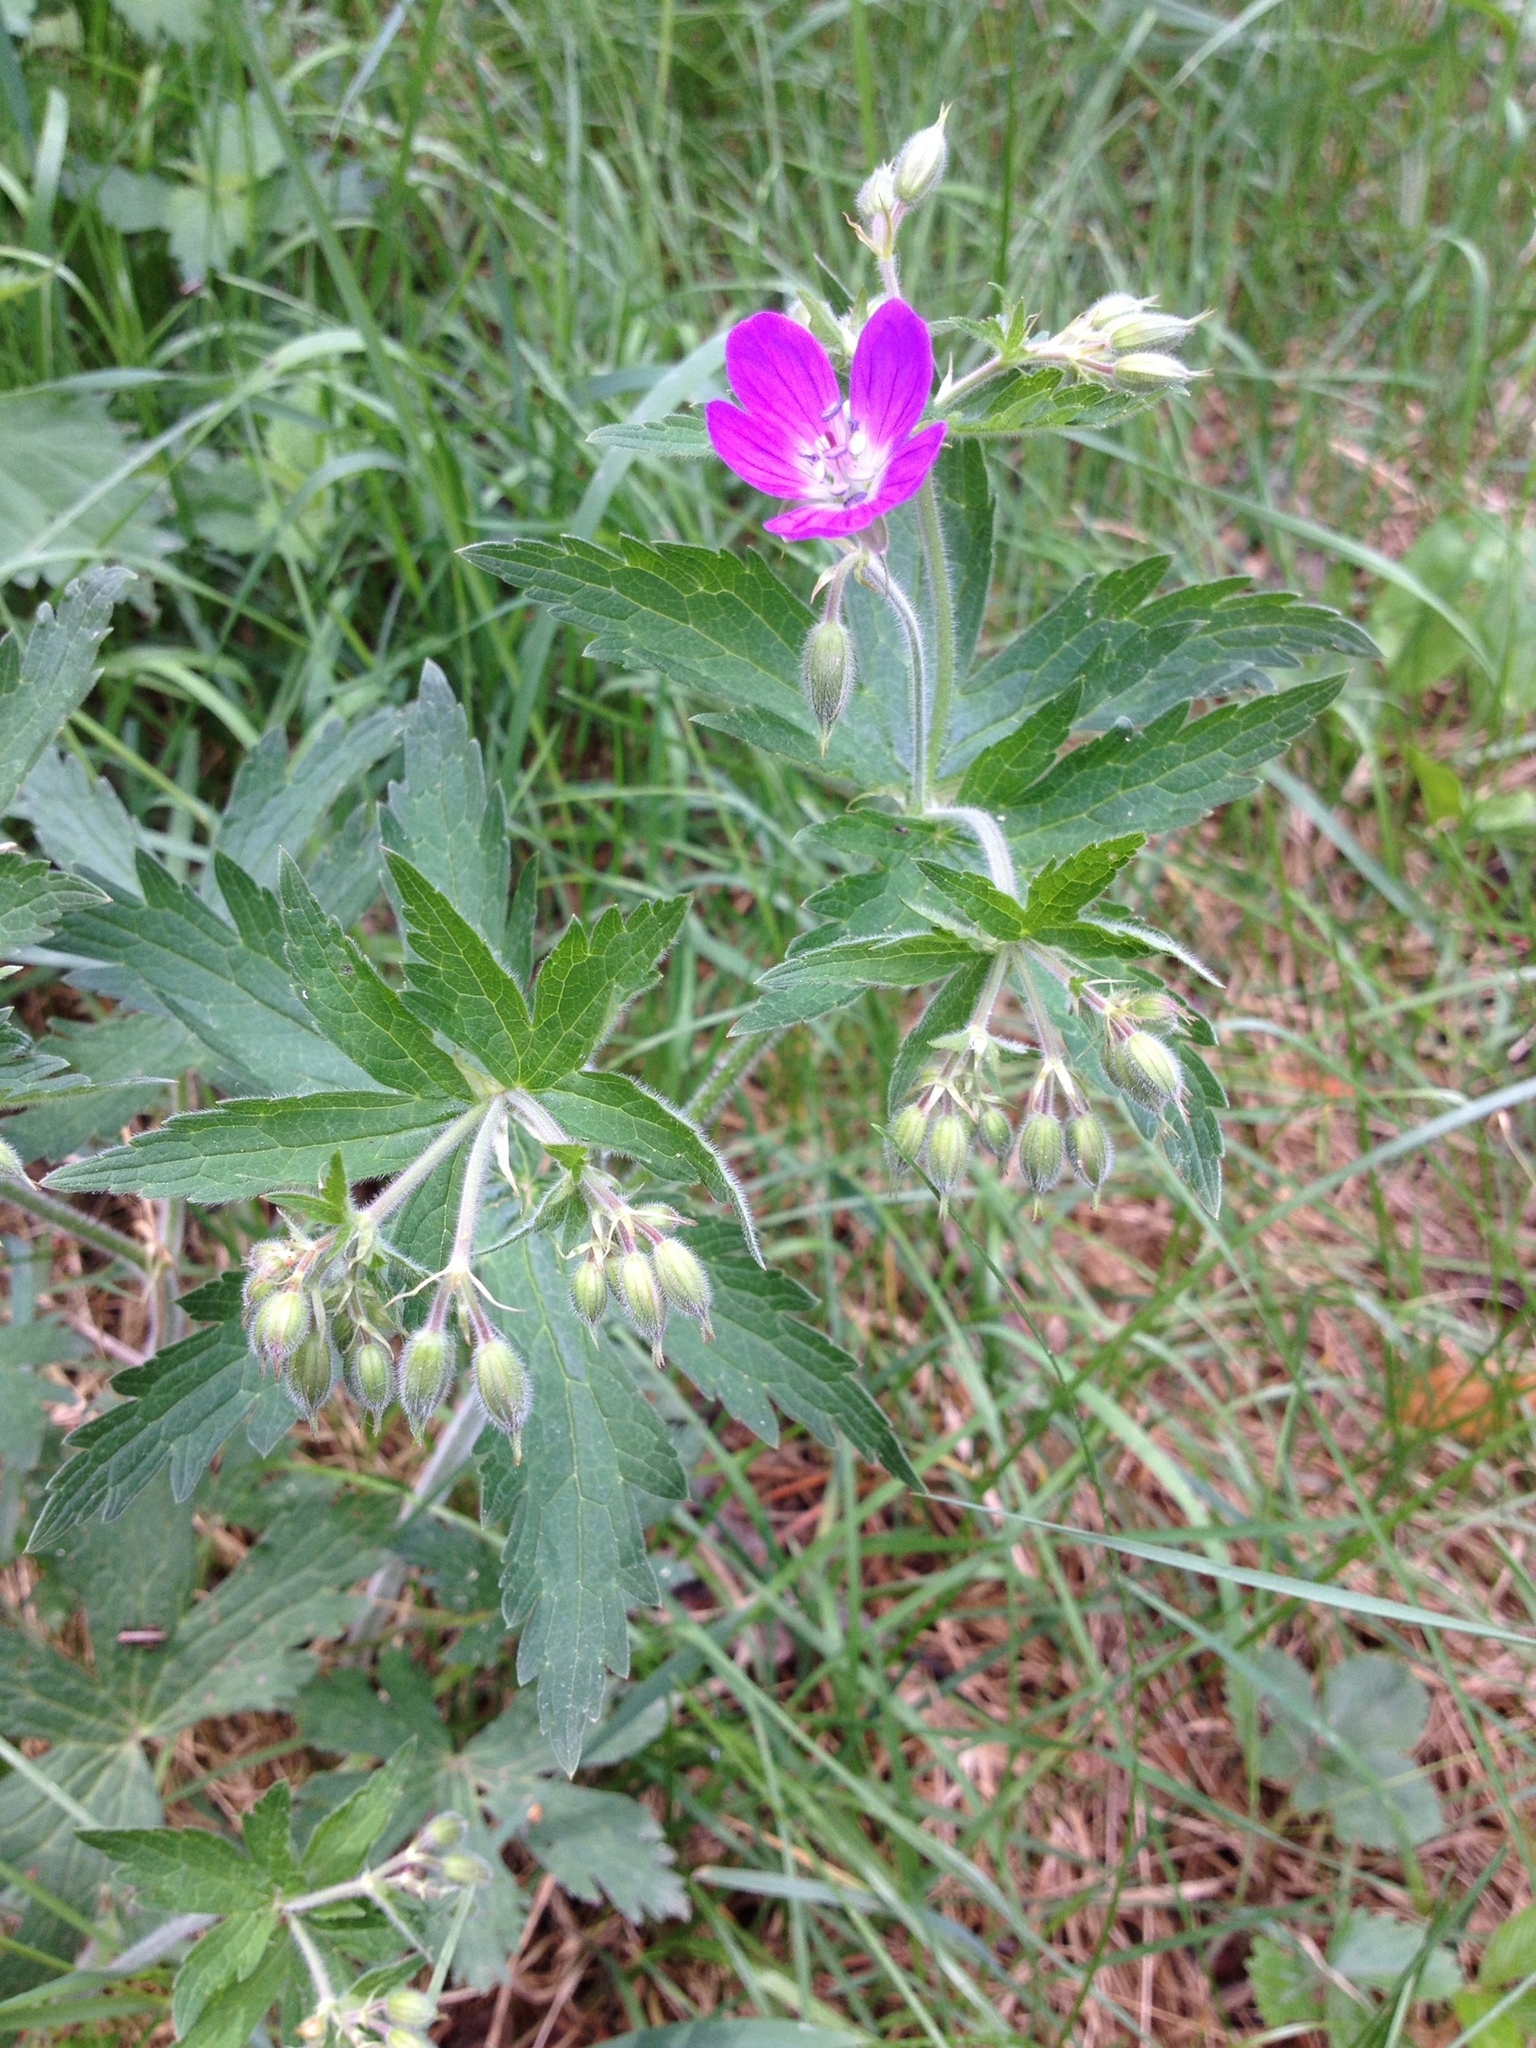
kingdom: Plantae
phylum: Tracheophyta
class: Magnoliopsida
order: Geraniales
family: Geraniaceae
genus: Geranium
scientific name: Geranium sylvaticum
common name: Wood crane's-bill
